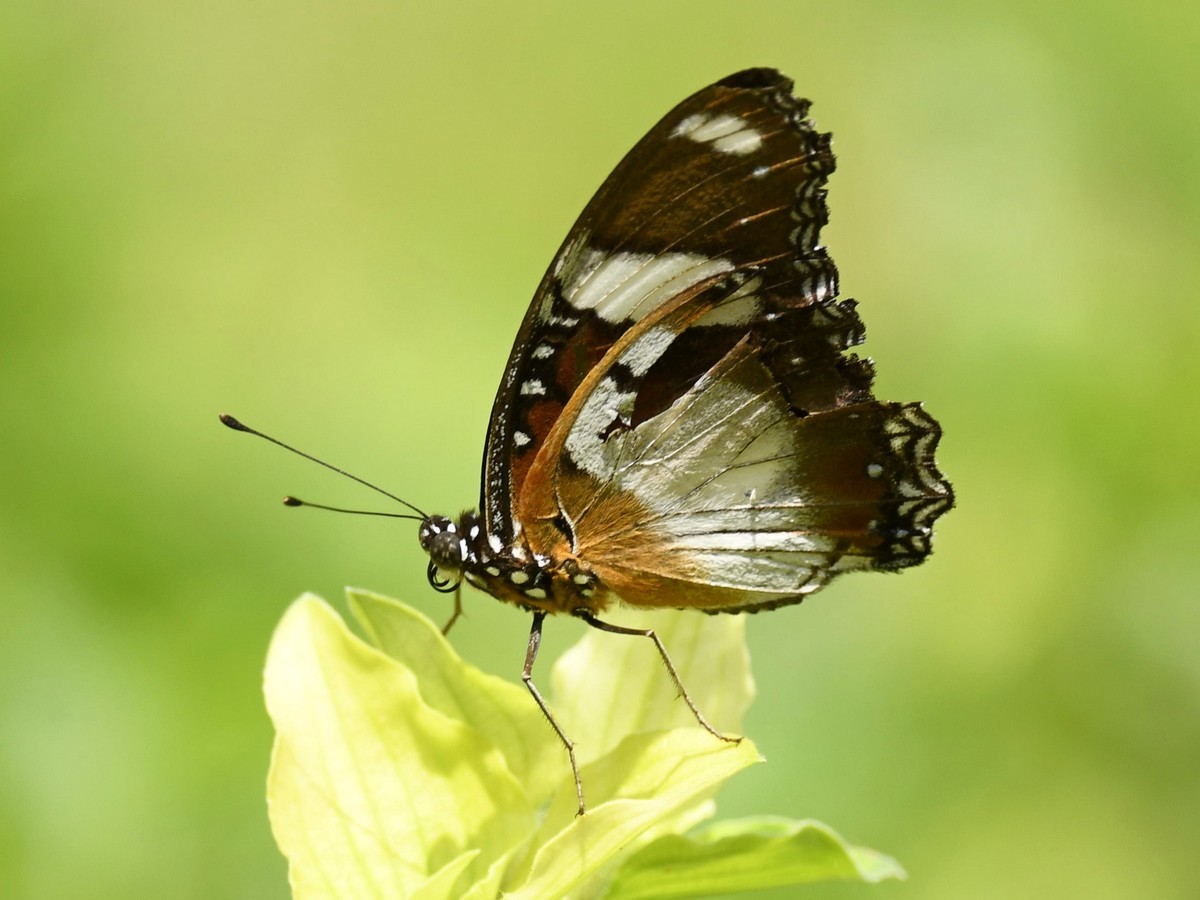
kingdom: Animalia
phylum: Arthropoda
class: Insecta
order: Lepidoptera
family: Nymphalidae
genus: Hypolimnas
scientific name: Hypolimnas misippus
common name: False plain tiger
